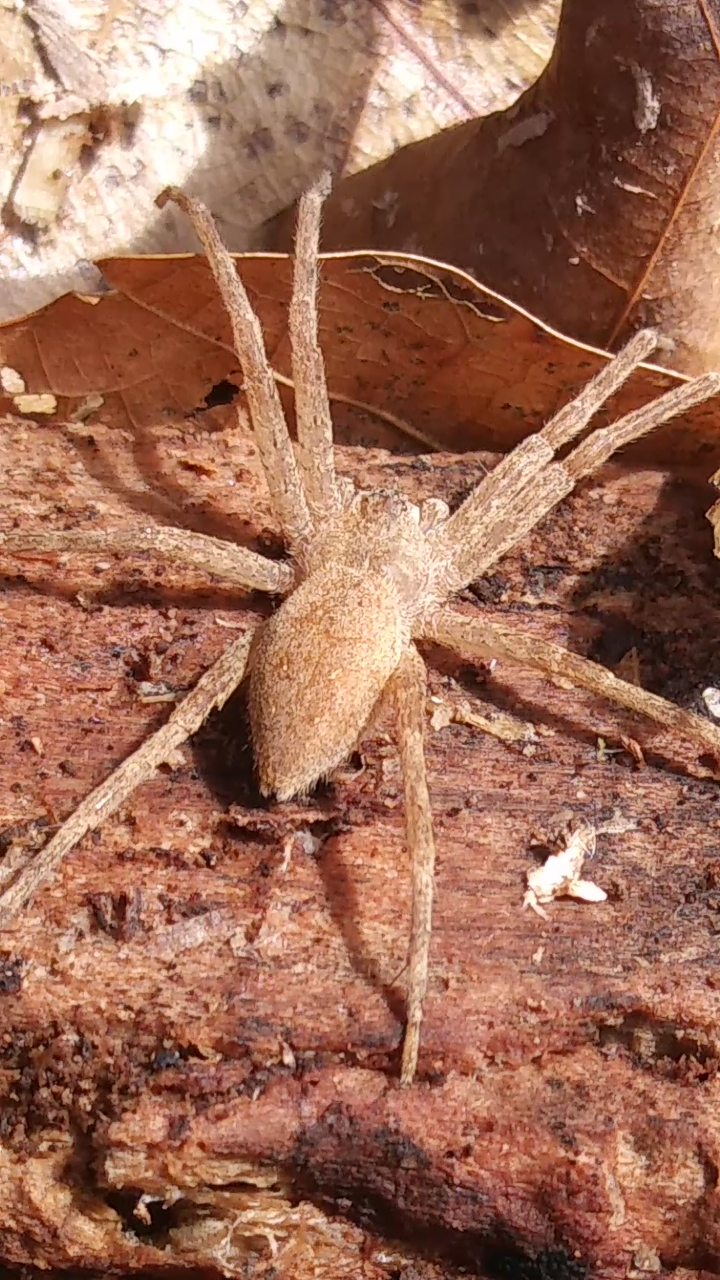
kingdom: Animalia
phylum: Arthropoda
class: Arachnida
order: Araneae
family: Pisauridae
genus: Pisaurina
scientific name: Pisaurina mira
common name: American nursery web spider
